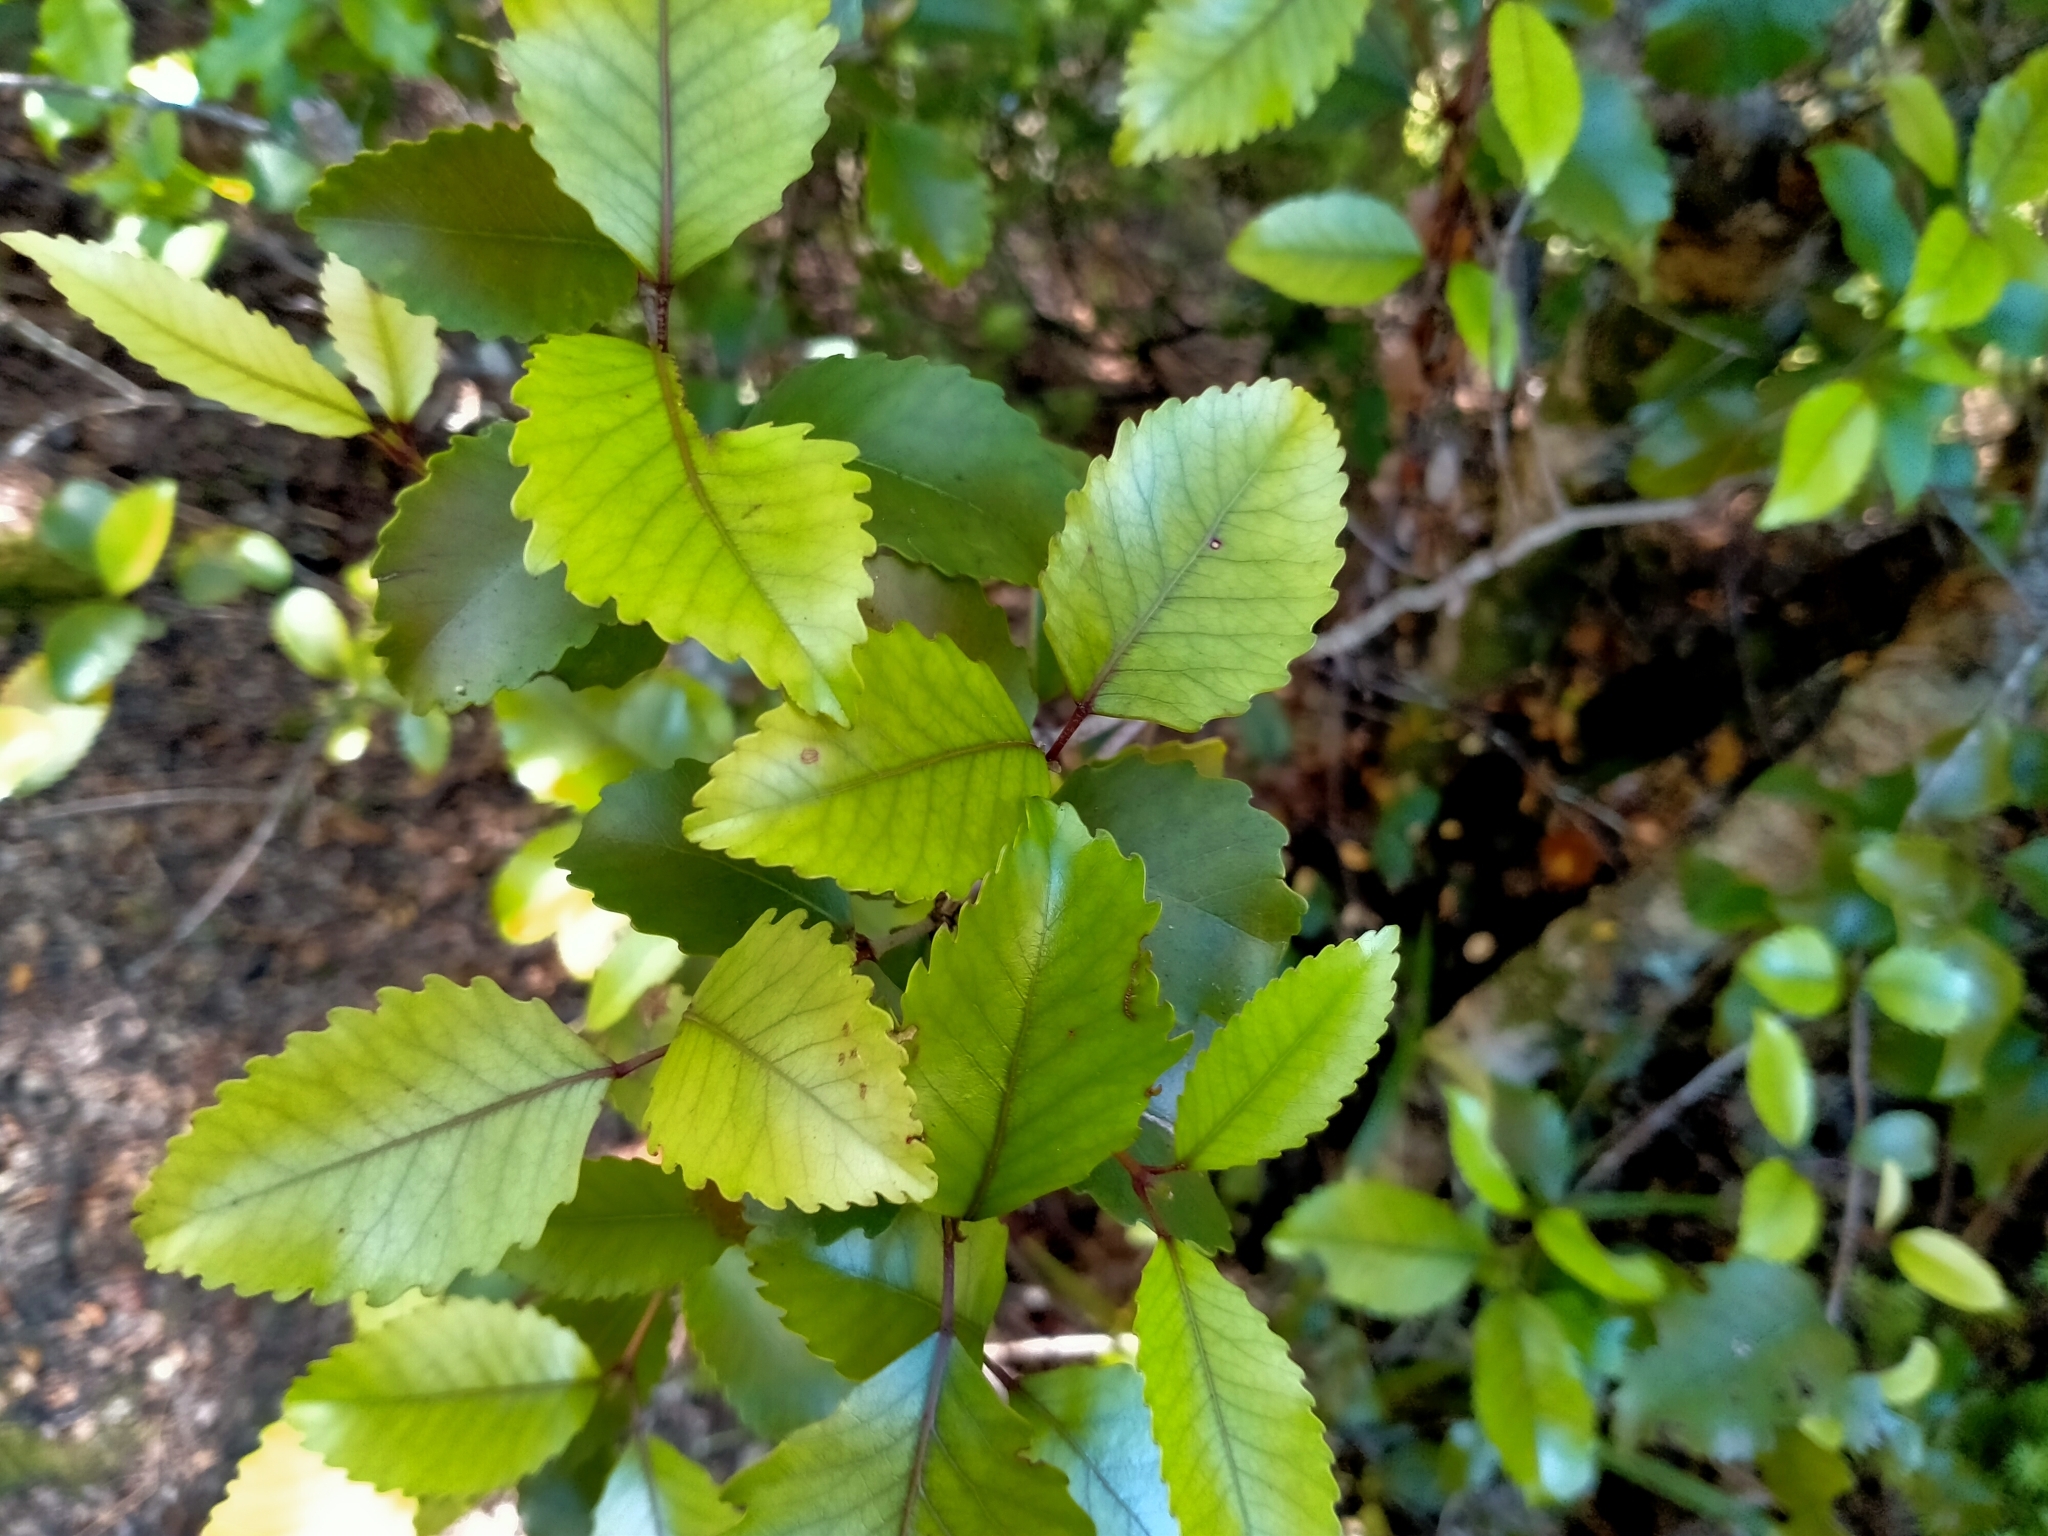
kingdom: Plantae
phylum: Tracheophyta
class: Magnoliopsida
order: Oxalidales
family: Cunoniaceae
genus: Pterophylla
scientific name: Pterophylla racemosa
